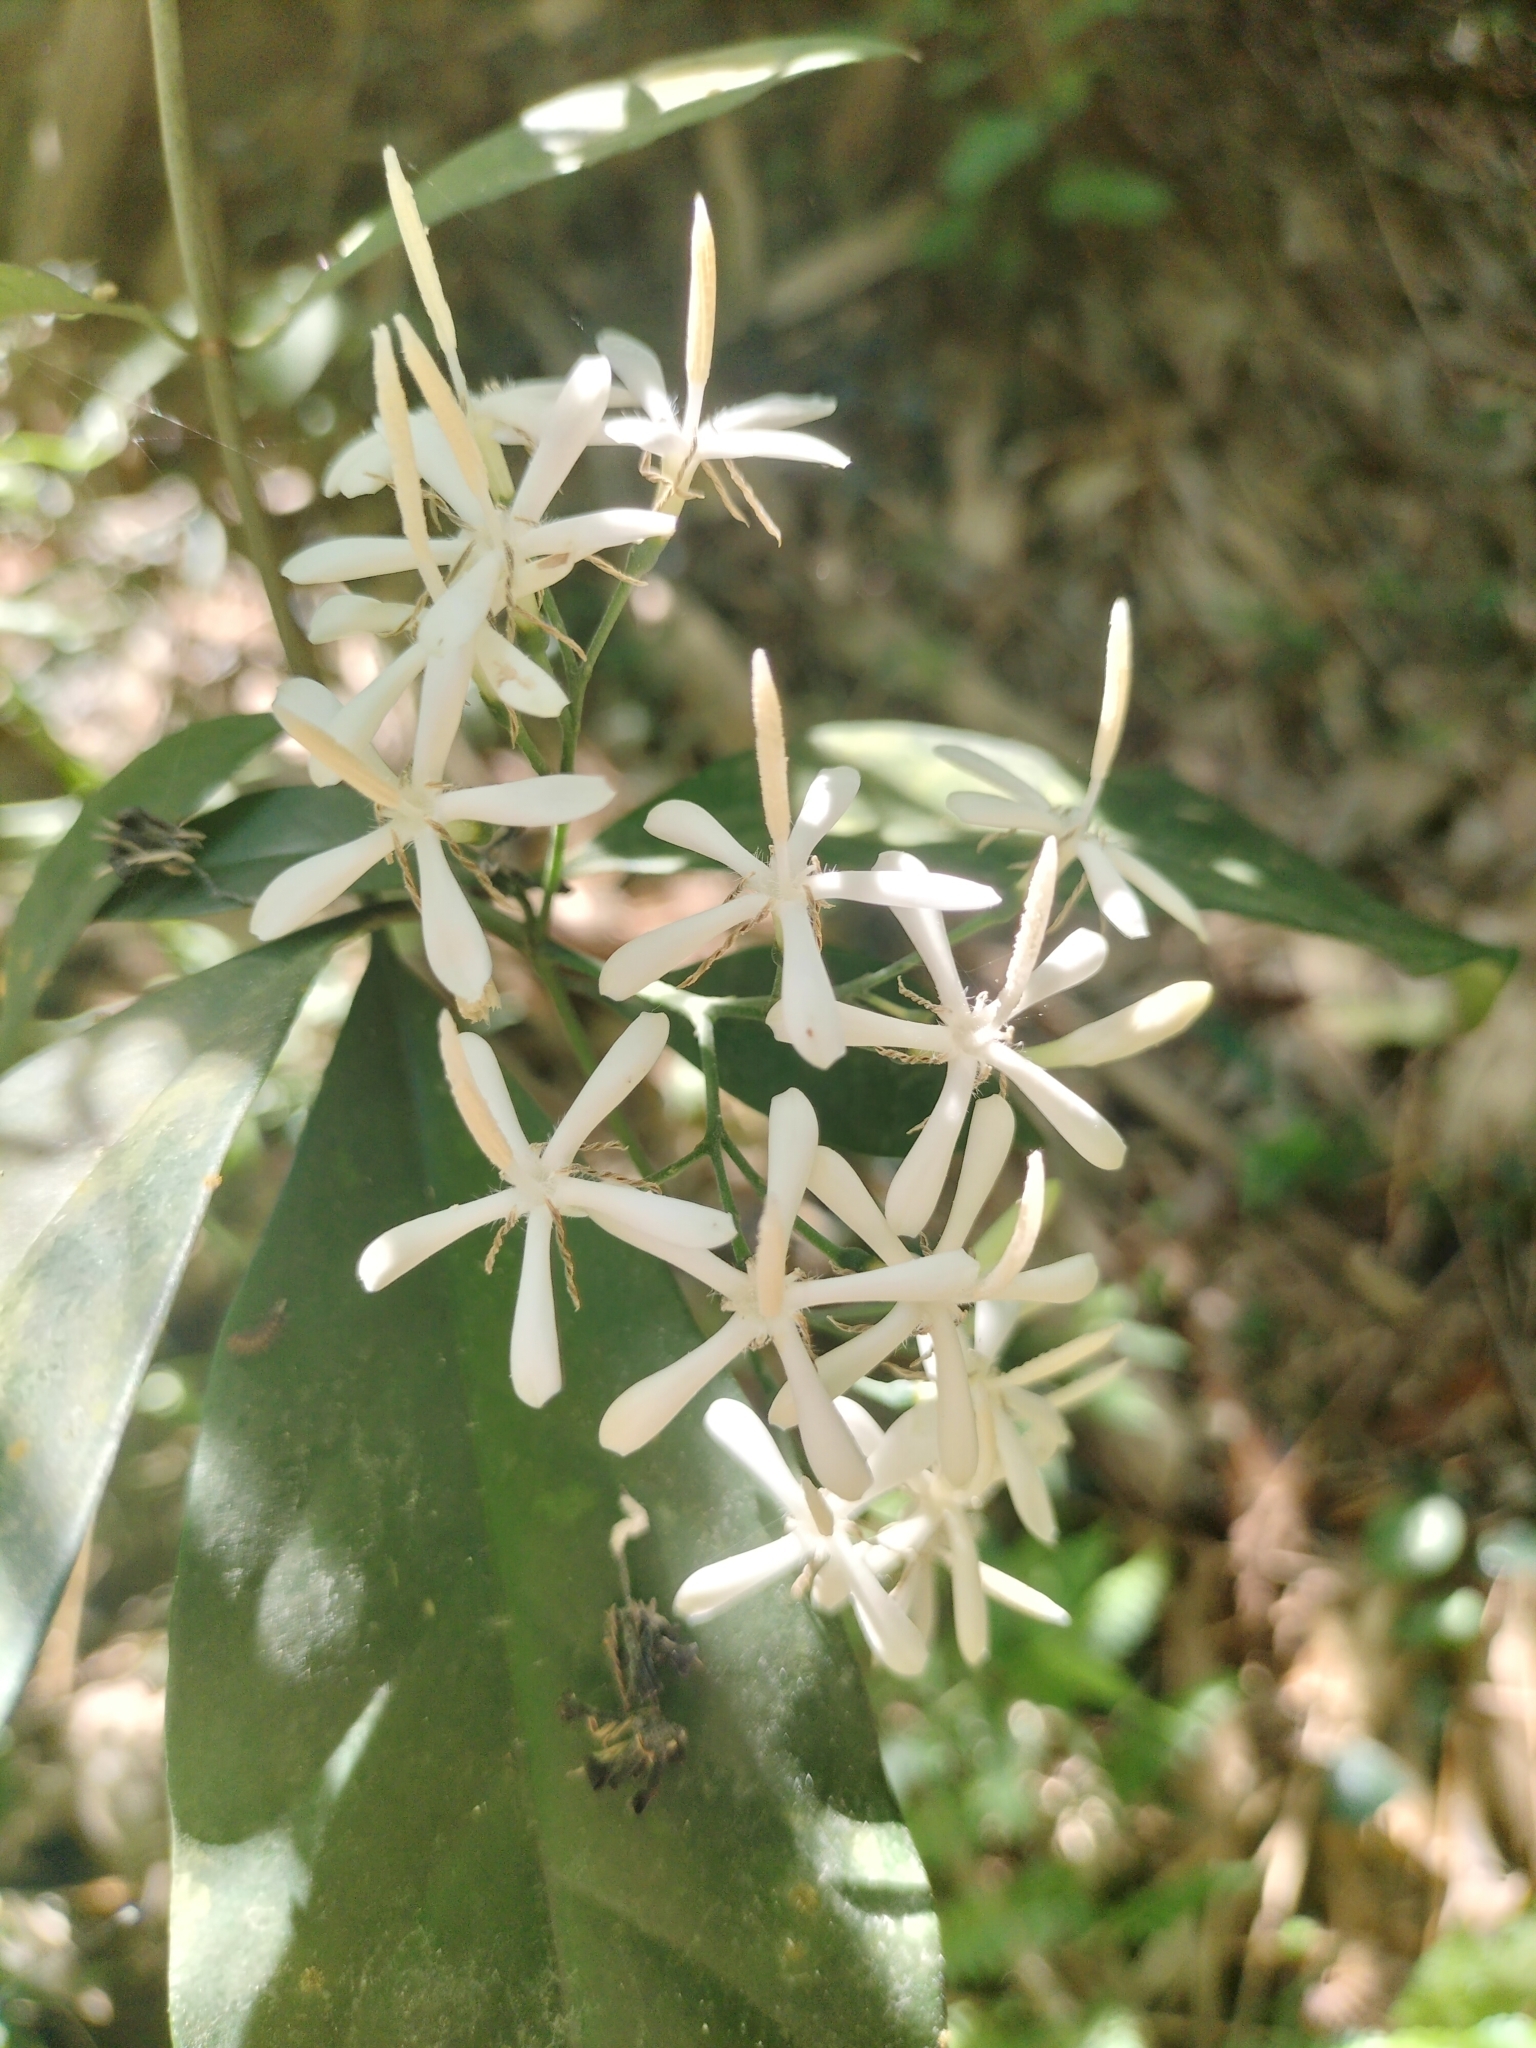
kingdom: Plantae
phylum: Tracheophyta
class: Magnoliopsida
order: Gentianales
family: Rubiaceae
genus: Tarenna
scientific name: Tarenna gracilipes
